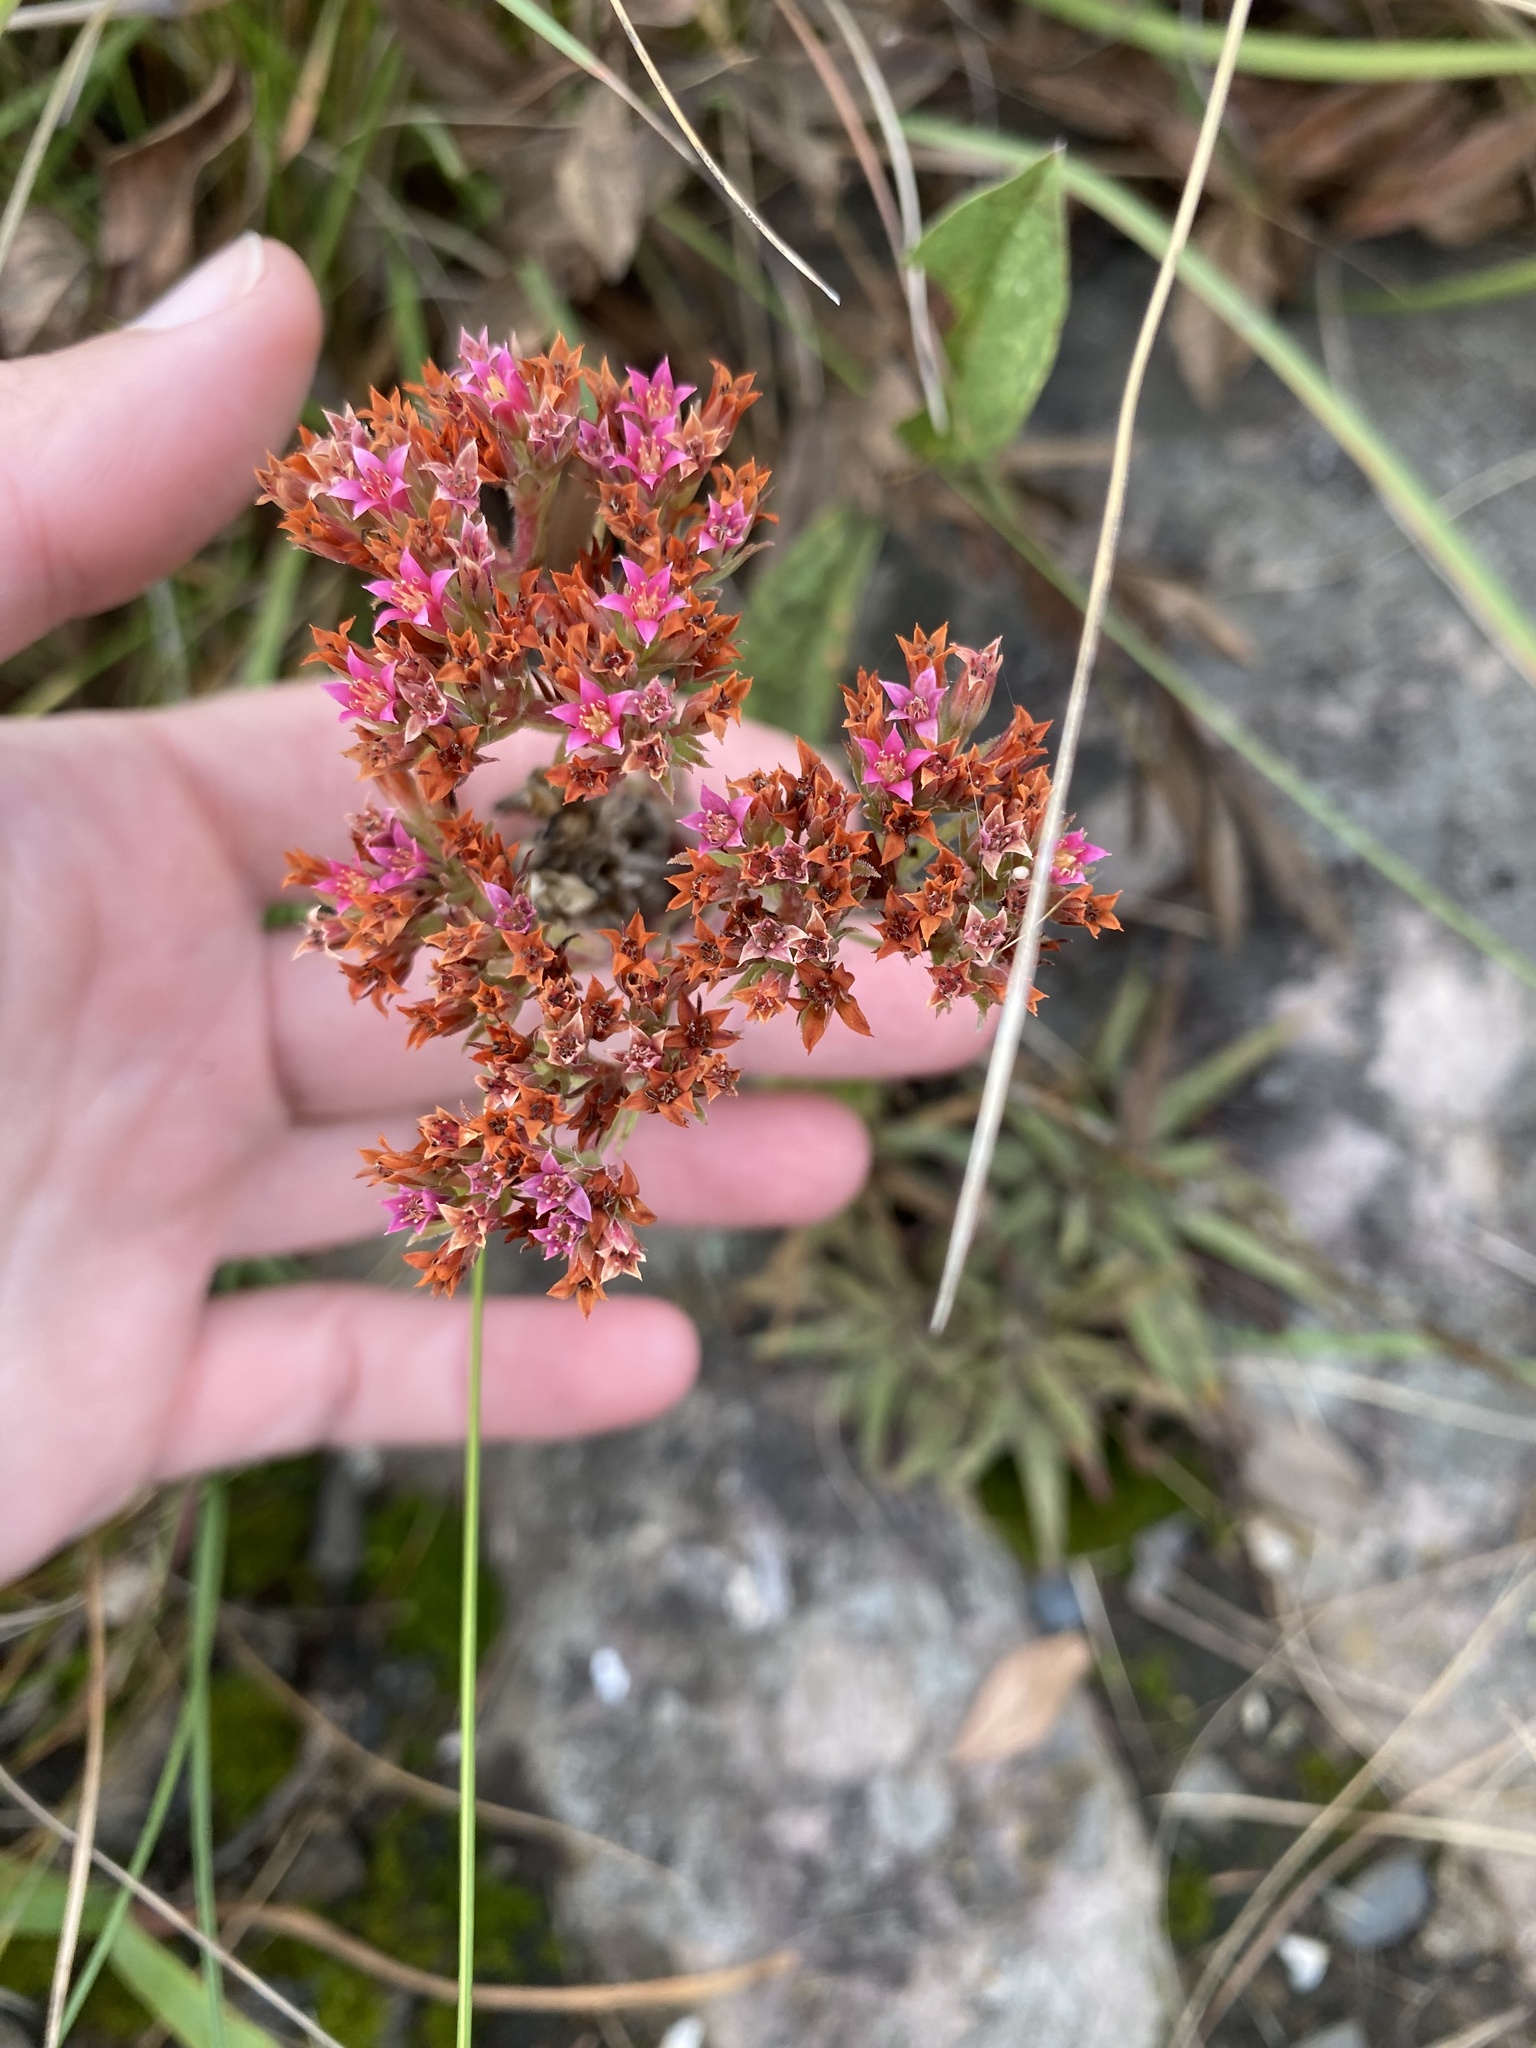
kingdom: Plantae
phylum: Tracheophyta
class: Magnoliopsida
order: Saxifragales
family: Crassulaceae
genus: Crassula
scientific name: Crassula alba
